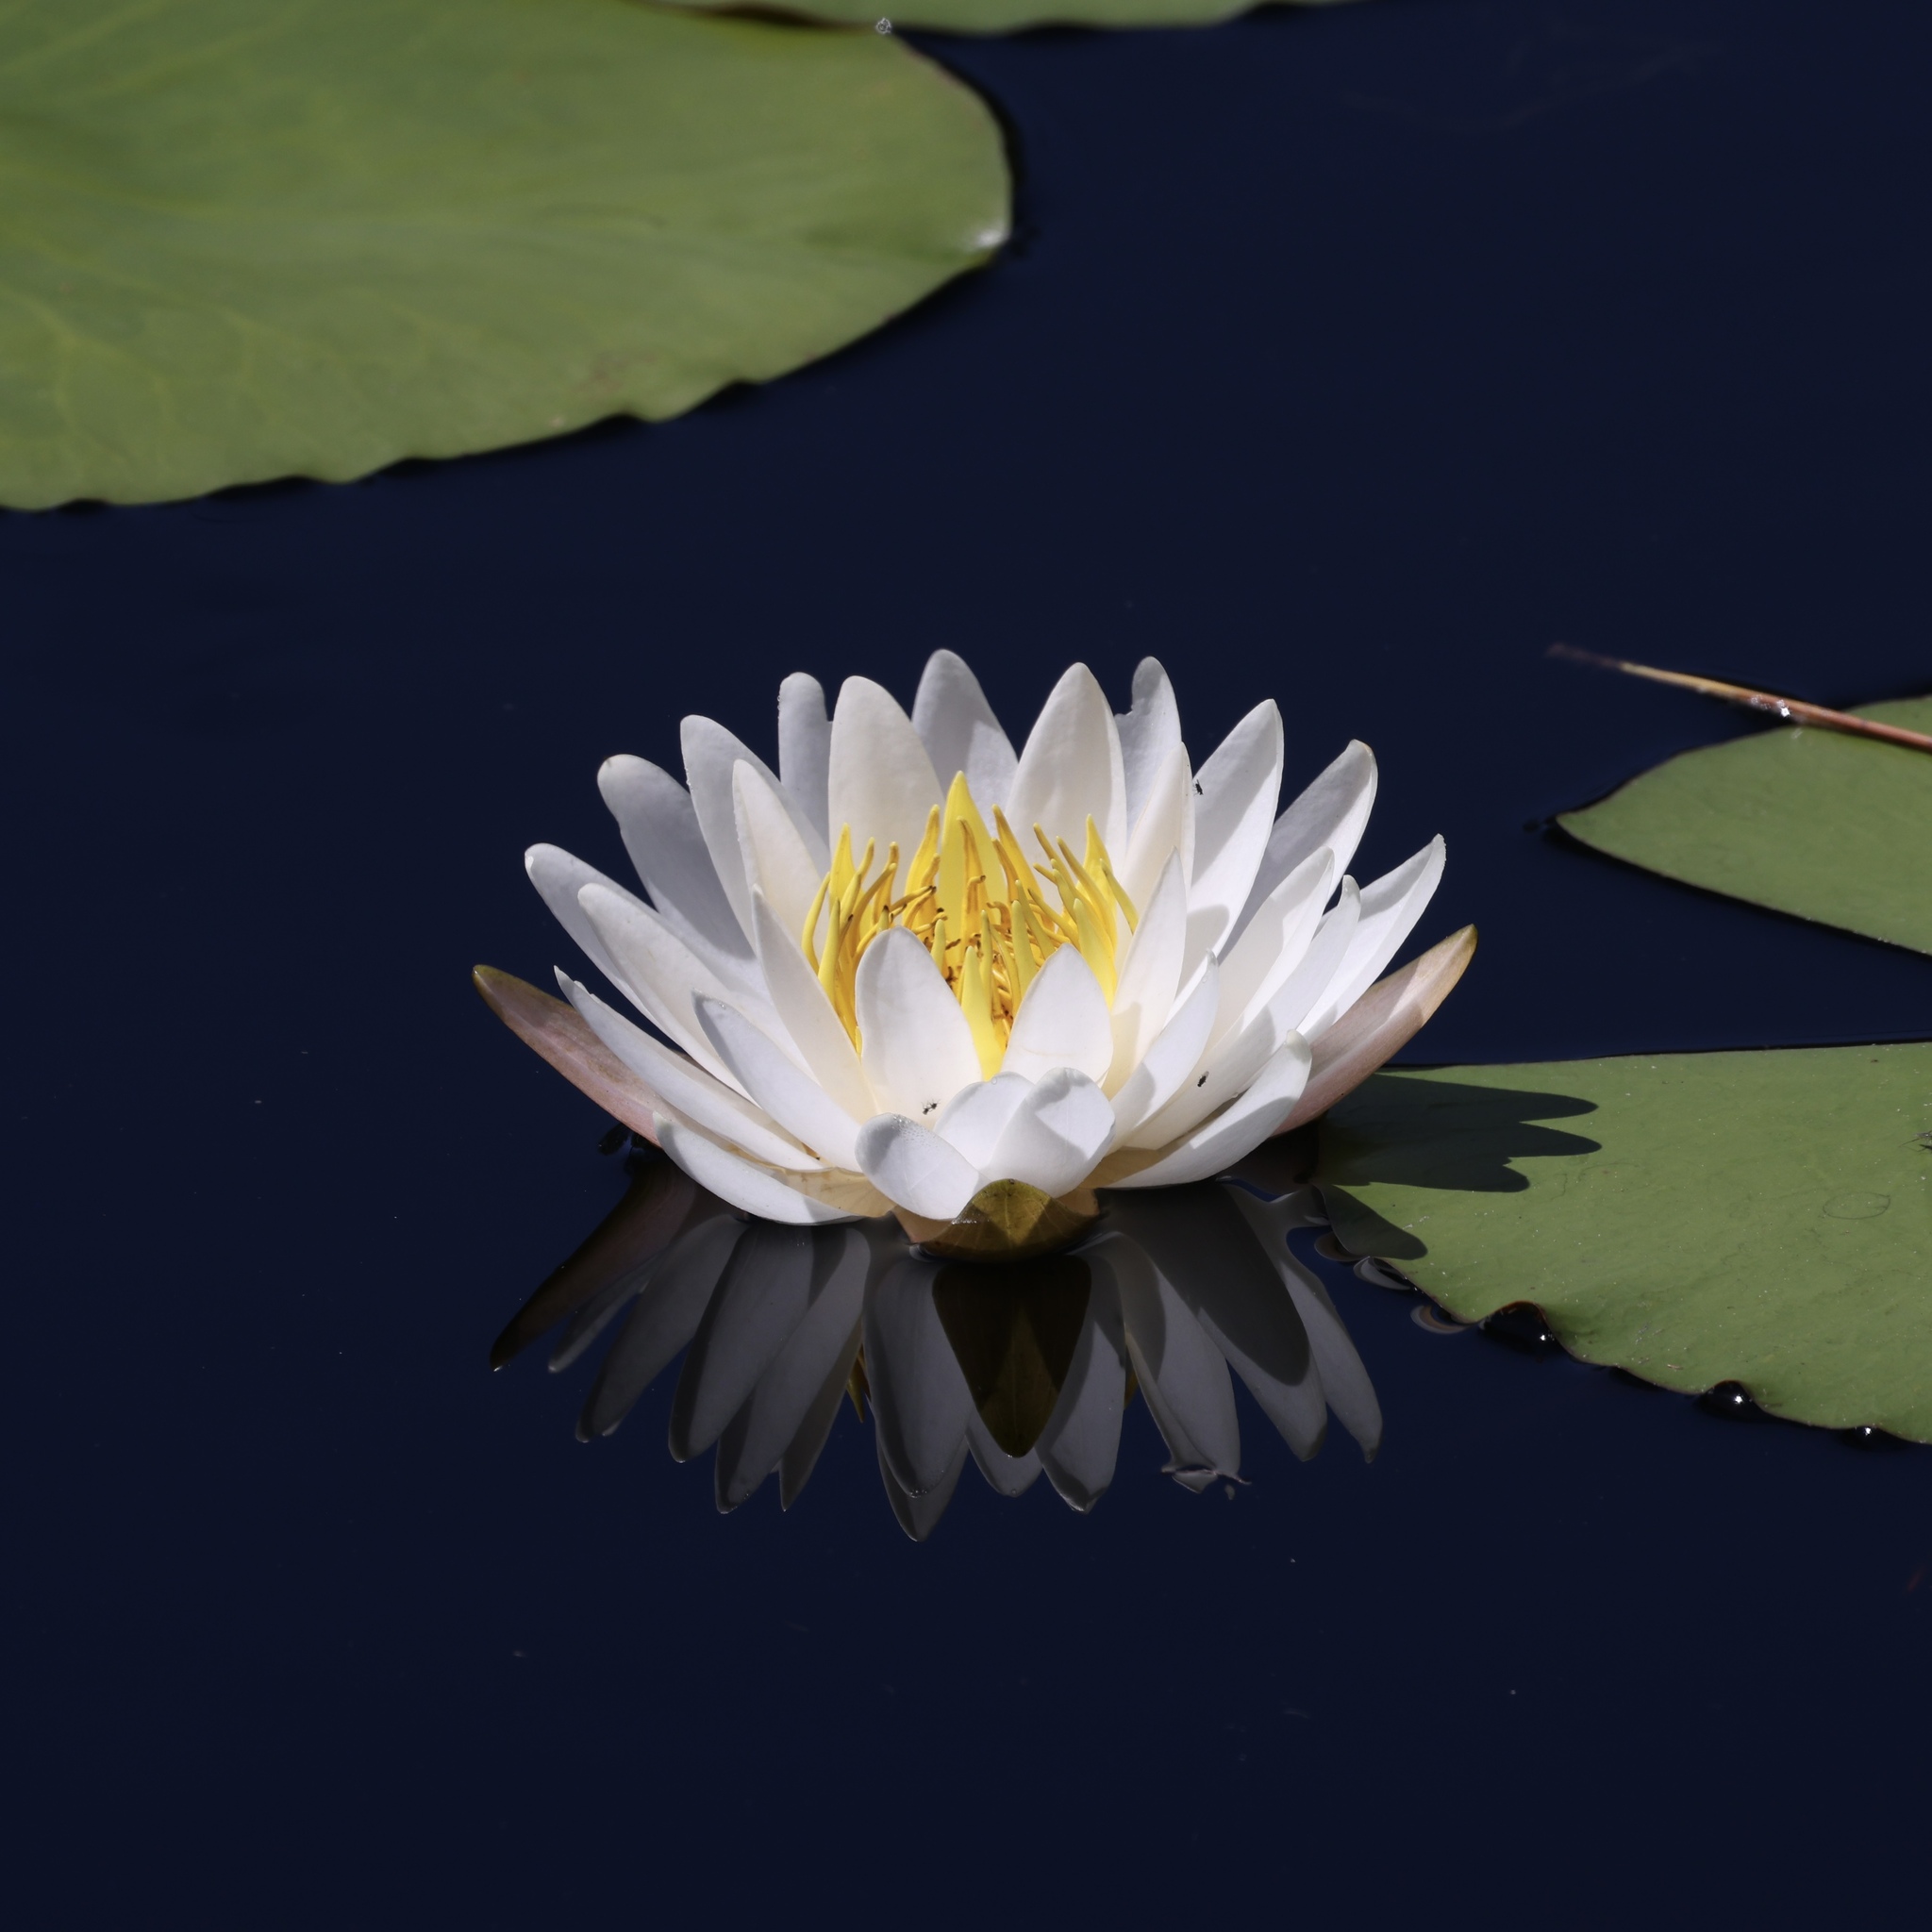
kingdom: Plantae
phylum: Tracheophyta
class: Magnoliopsida
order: Nymphaeales
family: Nymphaeaceae
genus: Nymphaea
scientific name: Nymphaea odorata
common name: Fragrant water-lily
